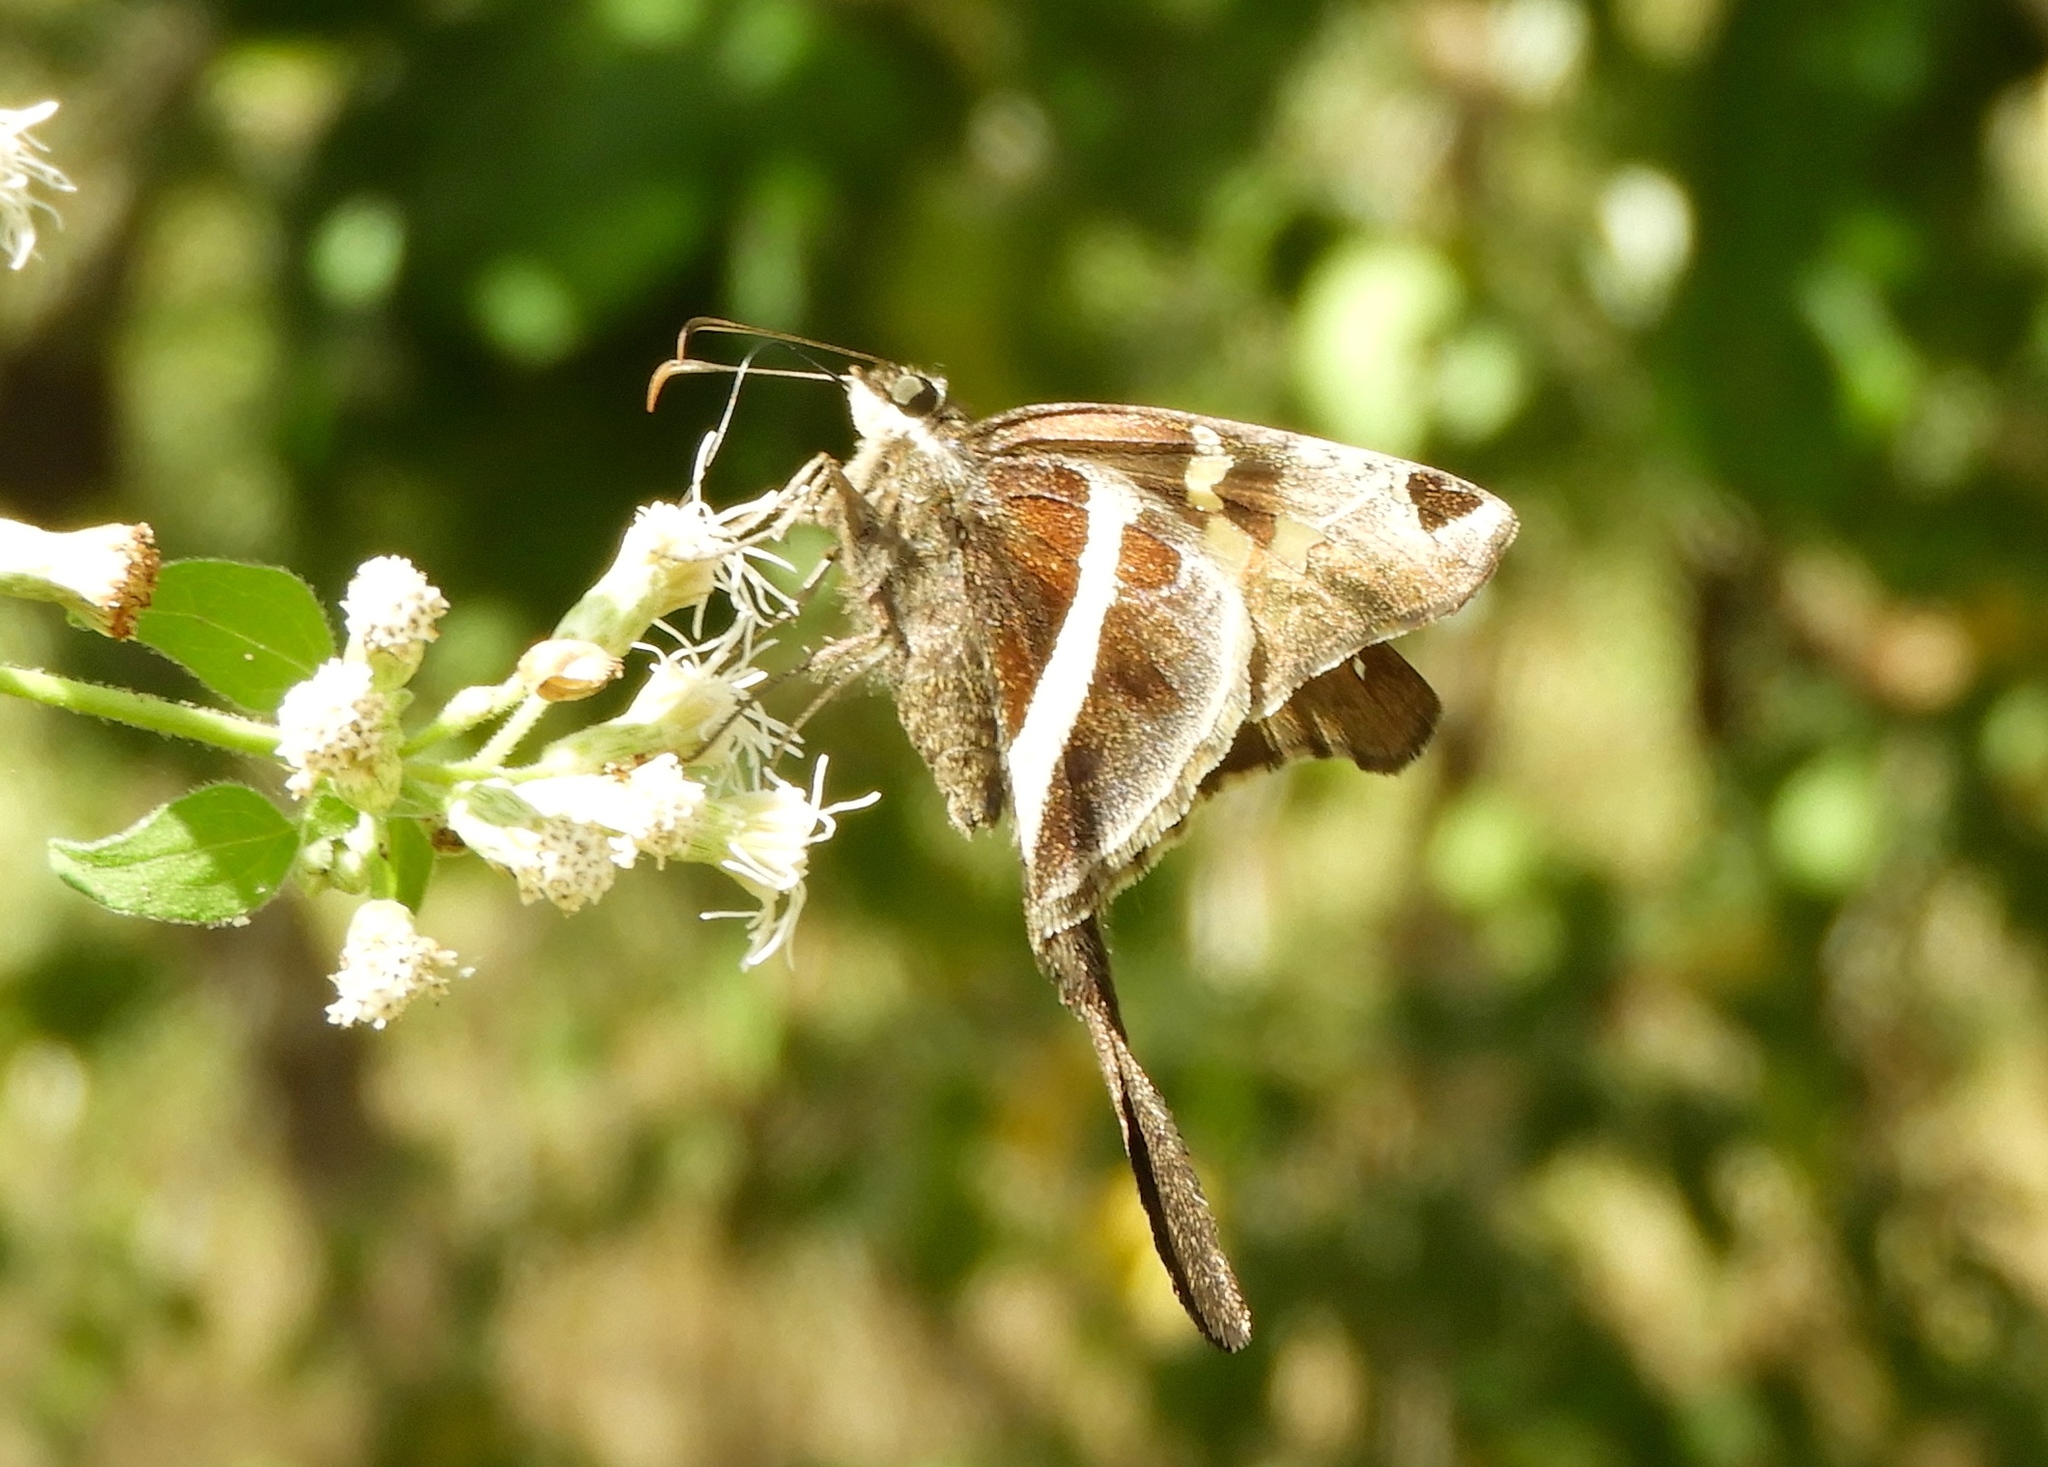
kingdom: Animalia
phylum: Arthropoda
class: Insecta
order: Lepidoptera
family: Hesperiidae
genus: Chioides
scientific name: Chioides catillus
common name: Silverbanded skipper
